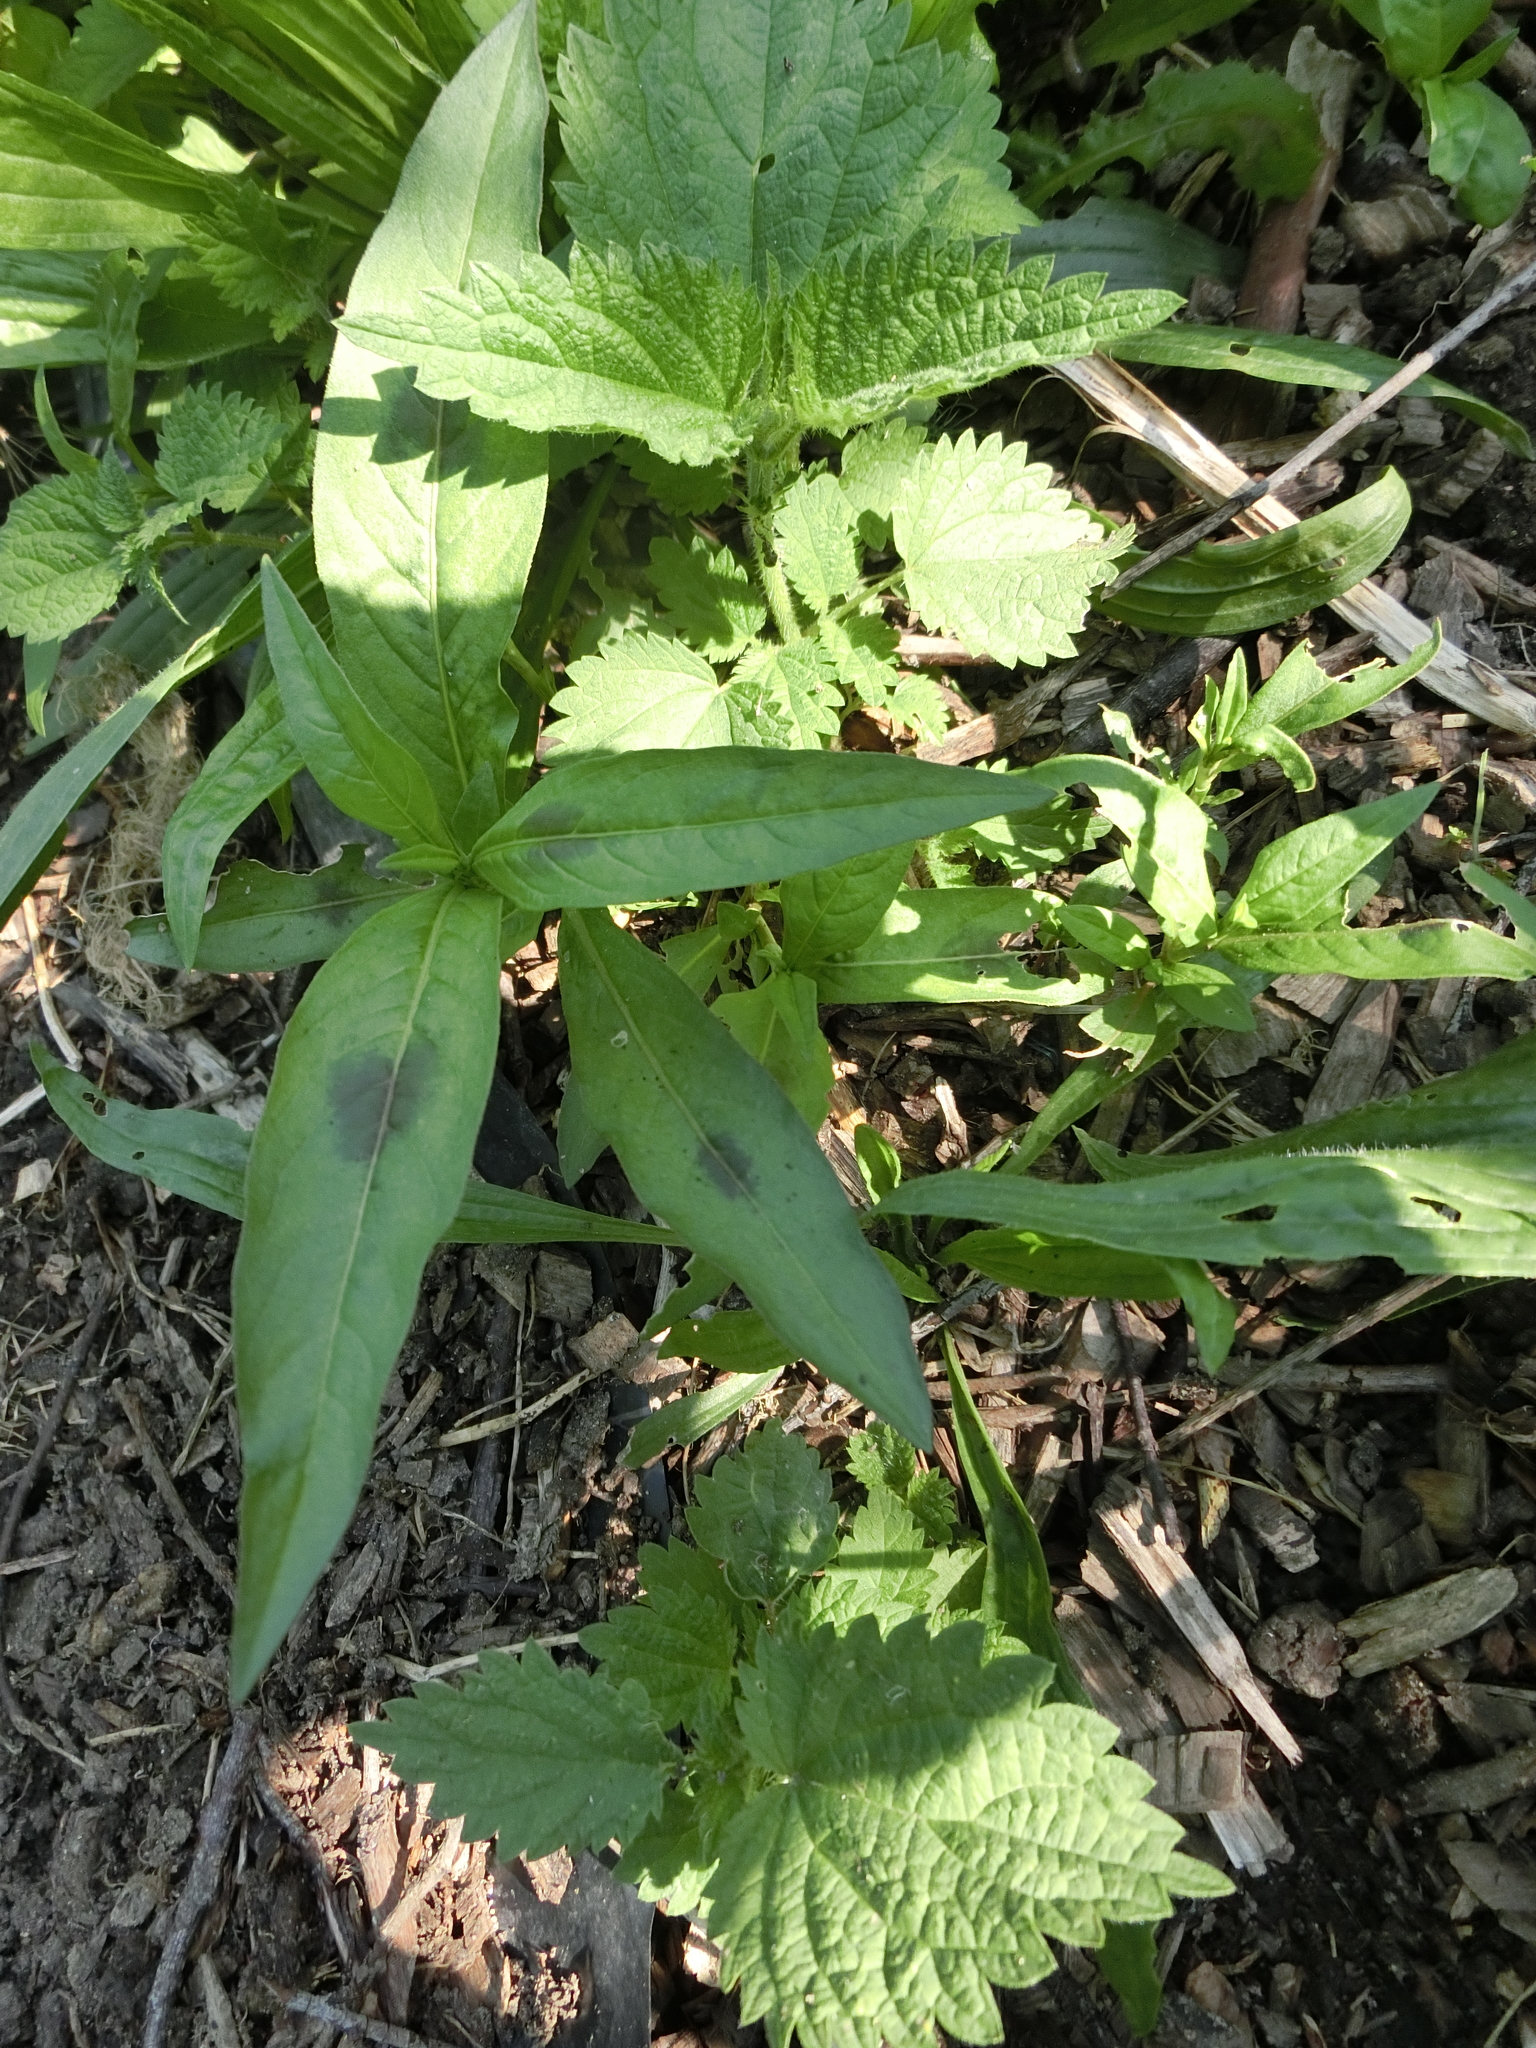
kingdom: Plantae
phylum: Tracheophyta
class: Magnoliopsida
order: Caryophyllales
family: Polygonaceae
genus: Persicaria
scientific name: Persicaria maculosa
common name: Redshank
